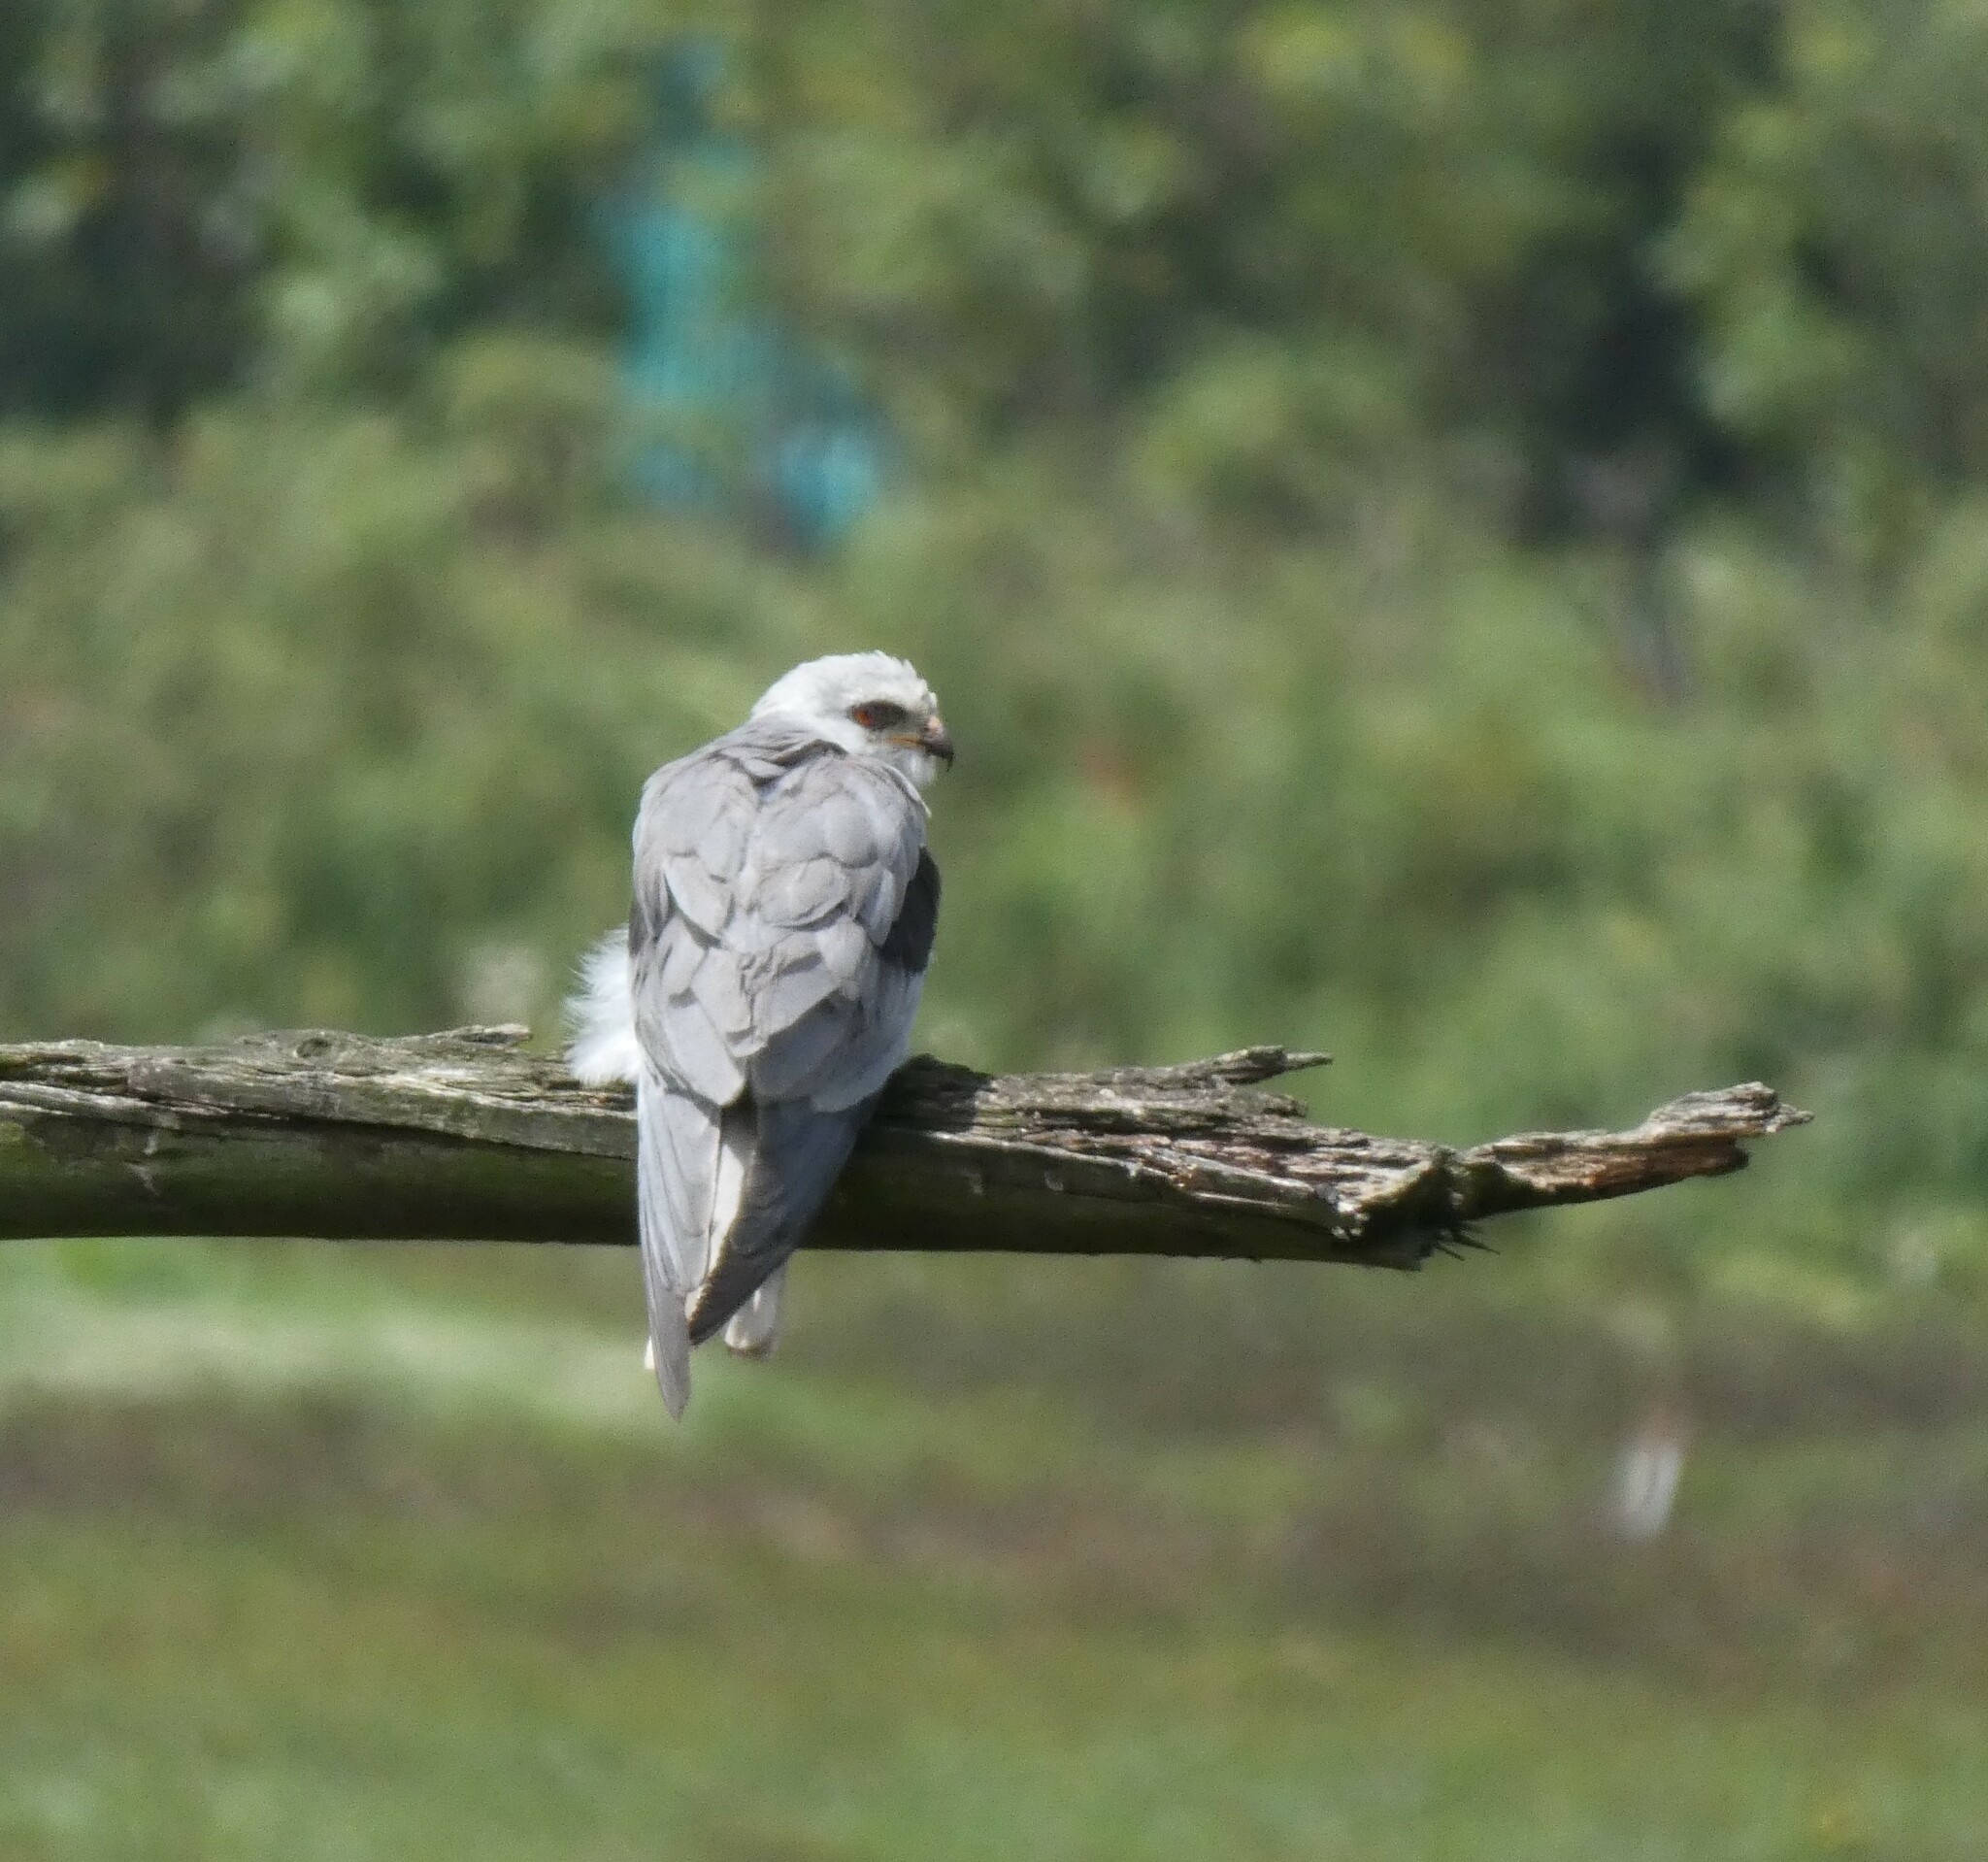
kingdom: Animalia
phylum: Chordata
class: Aves
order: Accipitriformes
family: Accipitridae
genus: Elanus
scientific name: Elanus leucurus
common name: White-tailed kite
